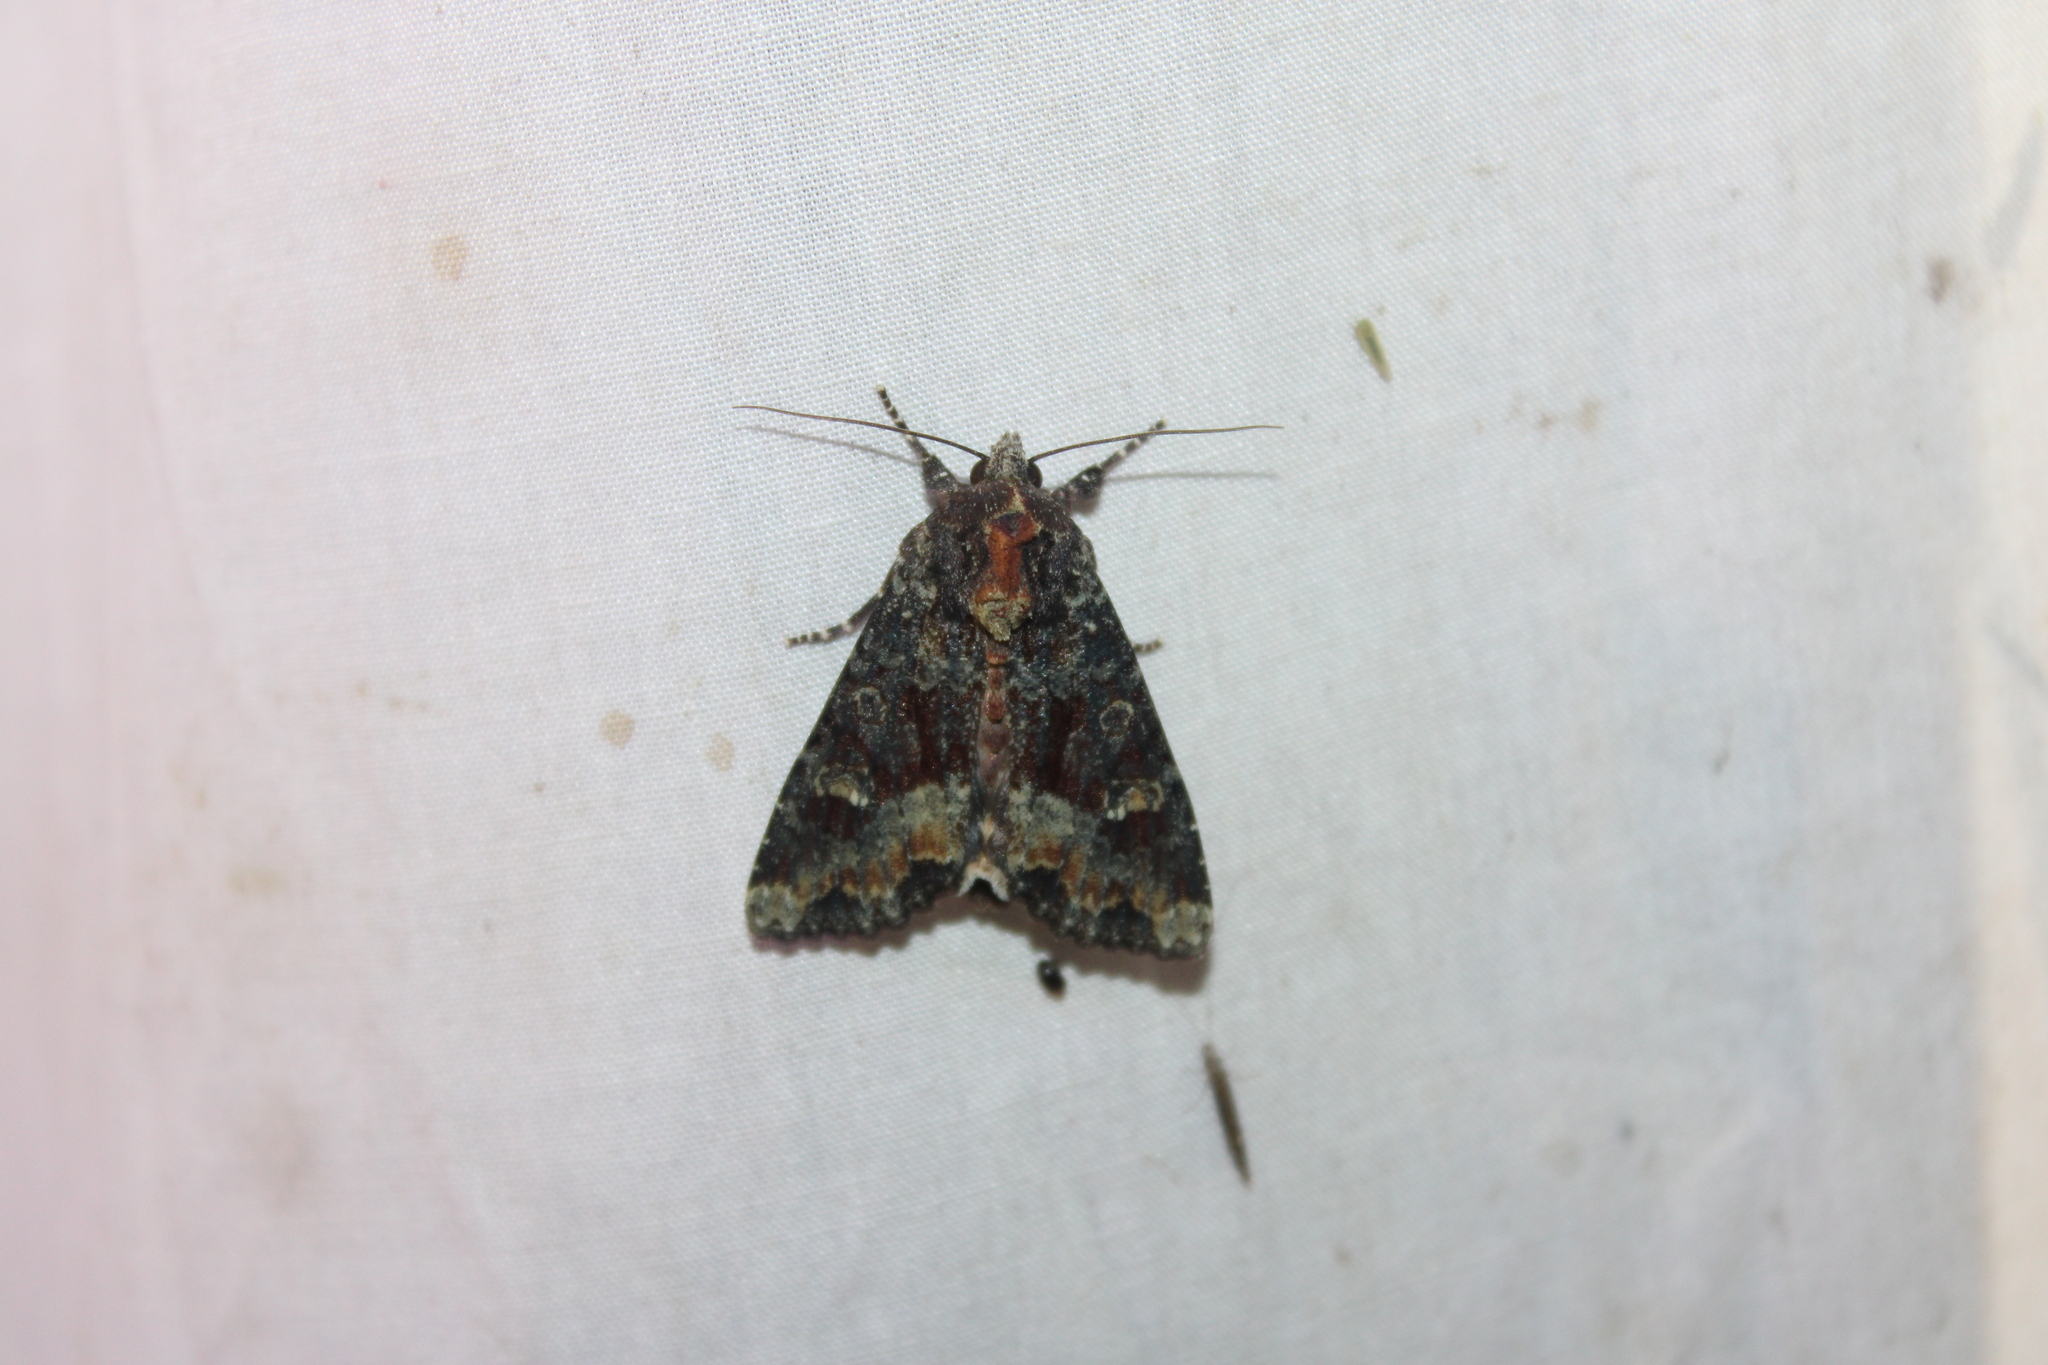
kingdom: Animalia
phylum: Arthropoda
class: Insecta
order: Lepidoptera
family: Noctuidae
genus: Apamea
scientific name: Apamea amputatrix
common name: Yellow-headed cutworm moth
